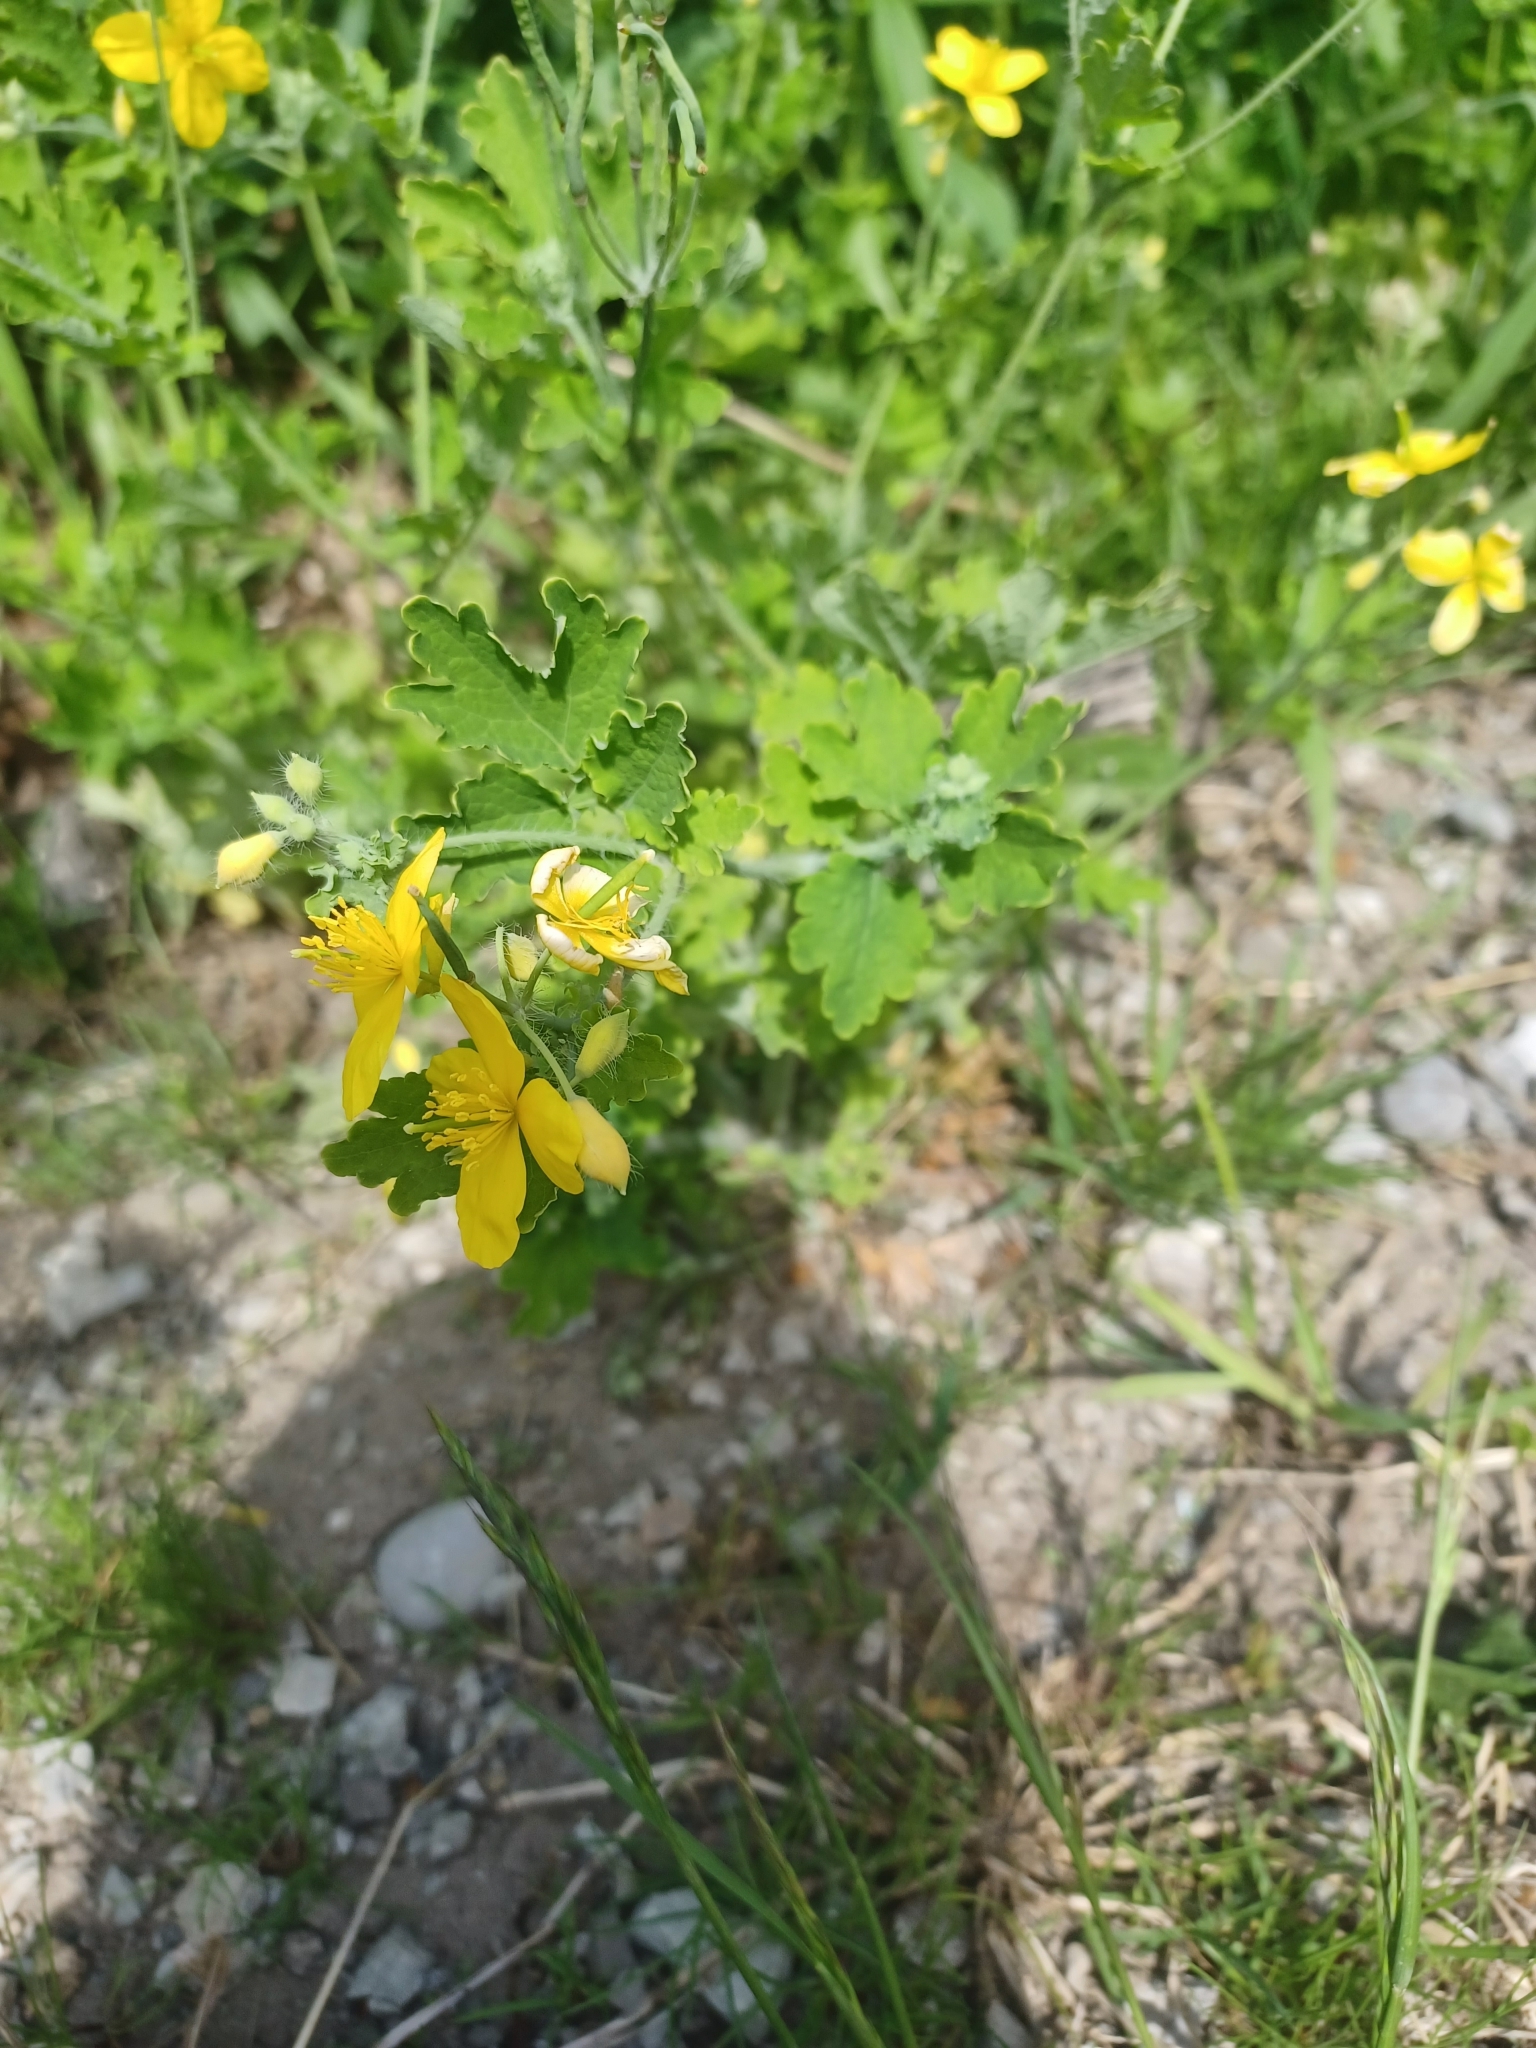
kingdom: Plantae
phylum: Tracheophyta
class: Magnoliopsida
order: Ranunculales
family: Papaveraceae
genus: Chelidonium
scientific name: Chelidonium majus
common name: Greater celandine
